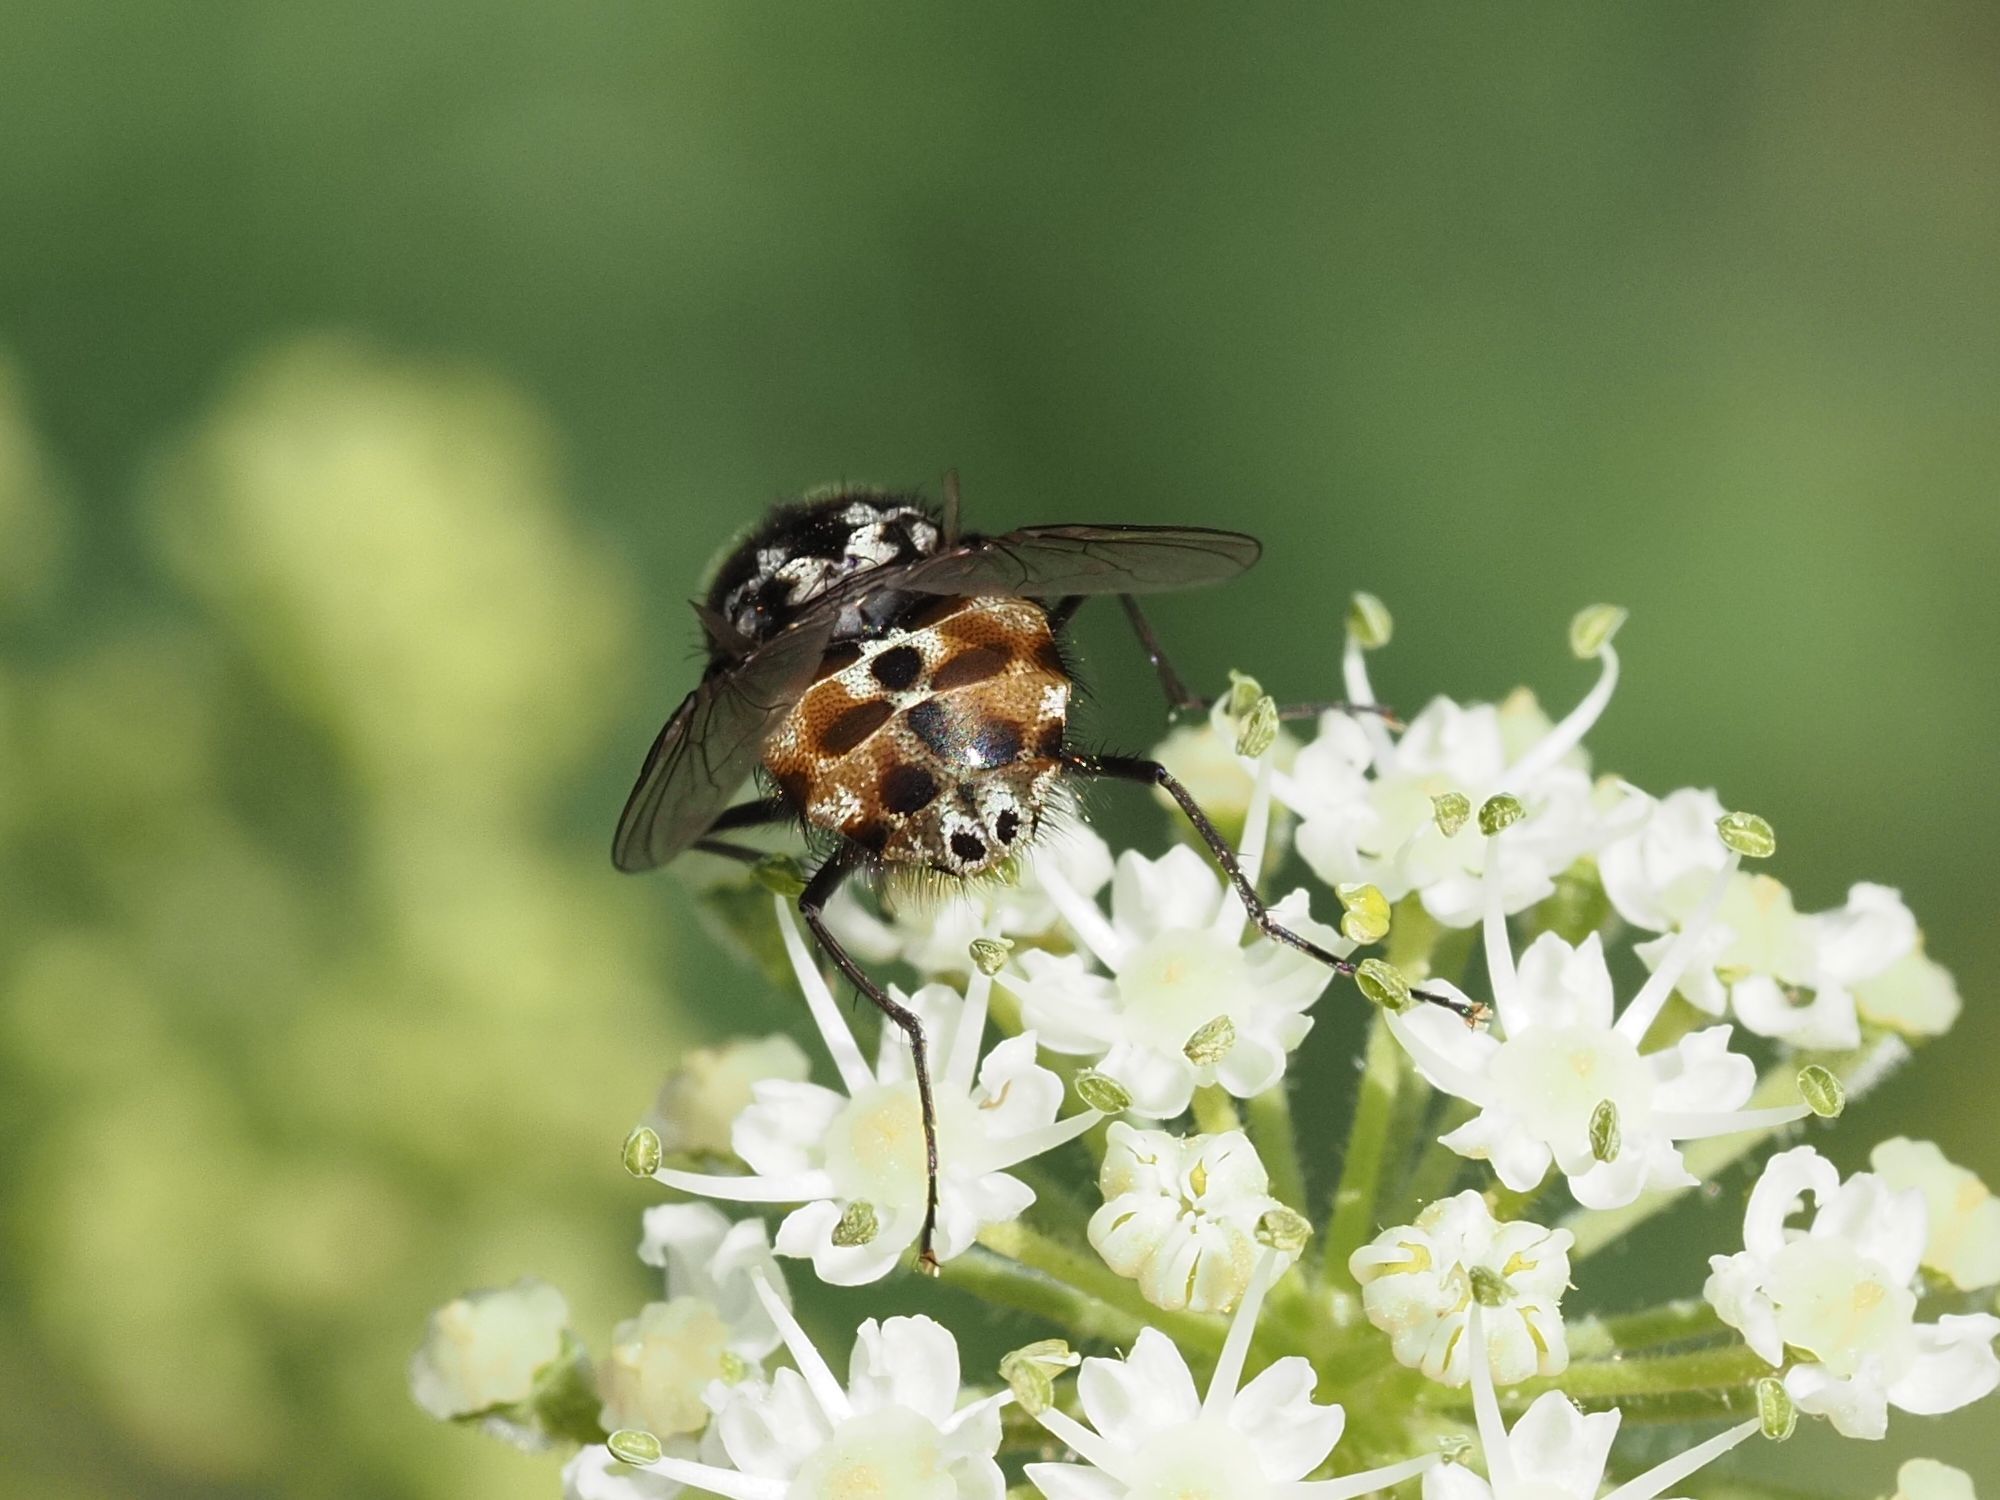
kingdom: Animalia
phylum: Arthropoda
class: Insecta
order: Diptera
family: Muscidae
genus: Graphomya
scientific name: Graphomya maculata
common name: Muscid fly
